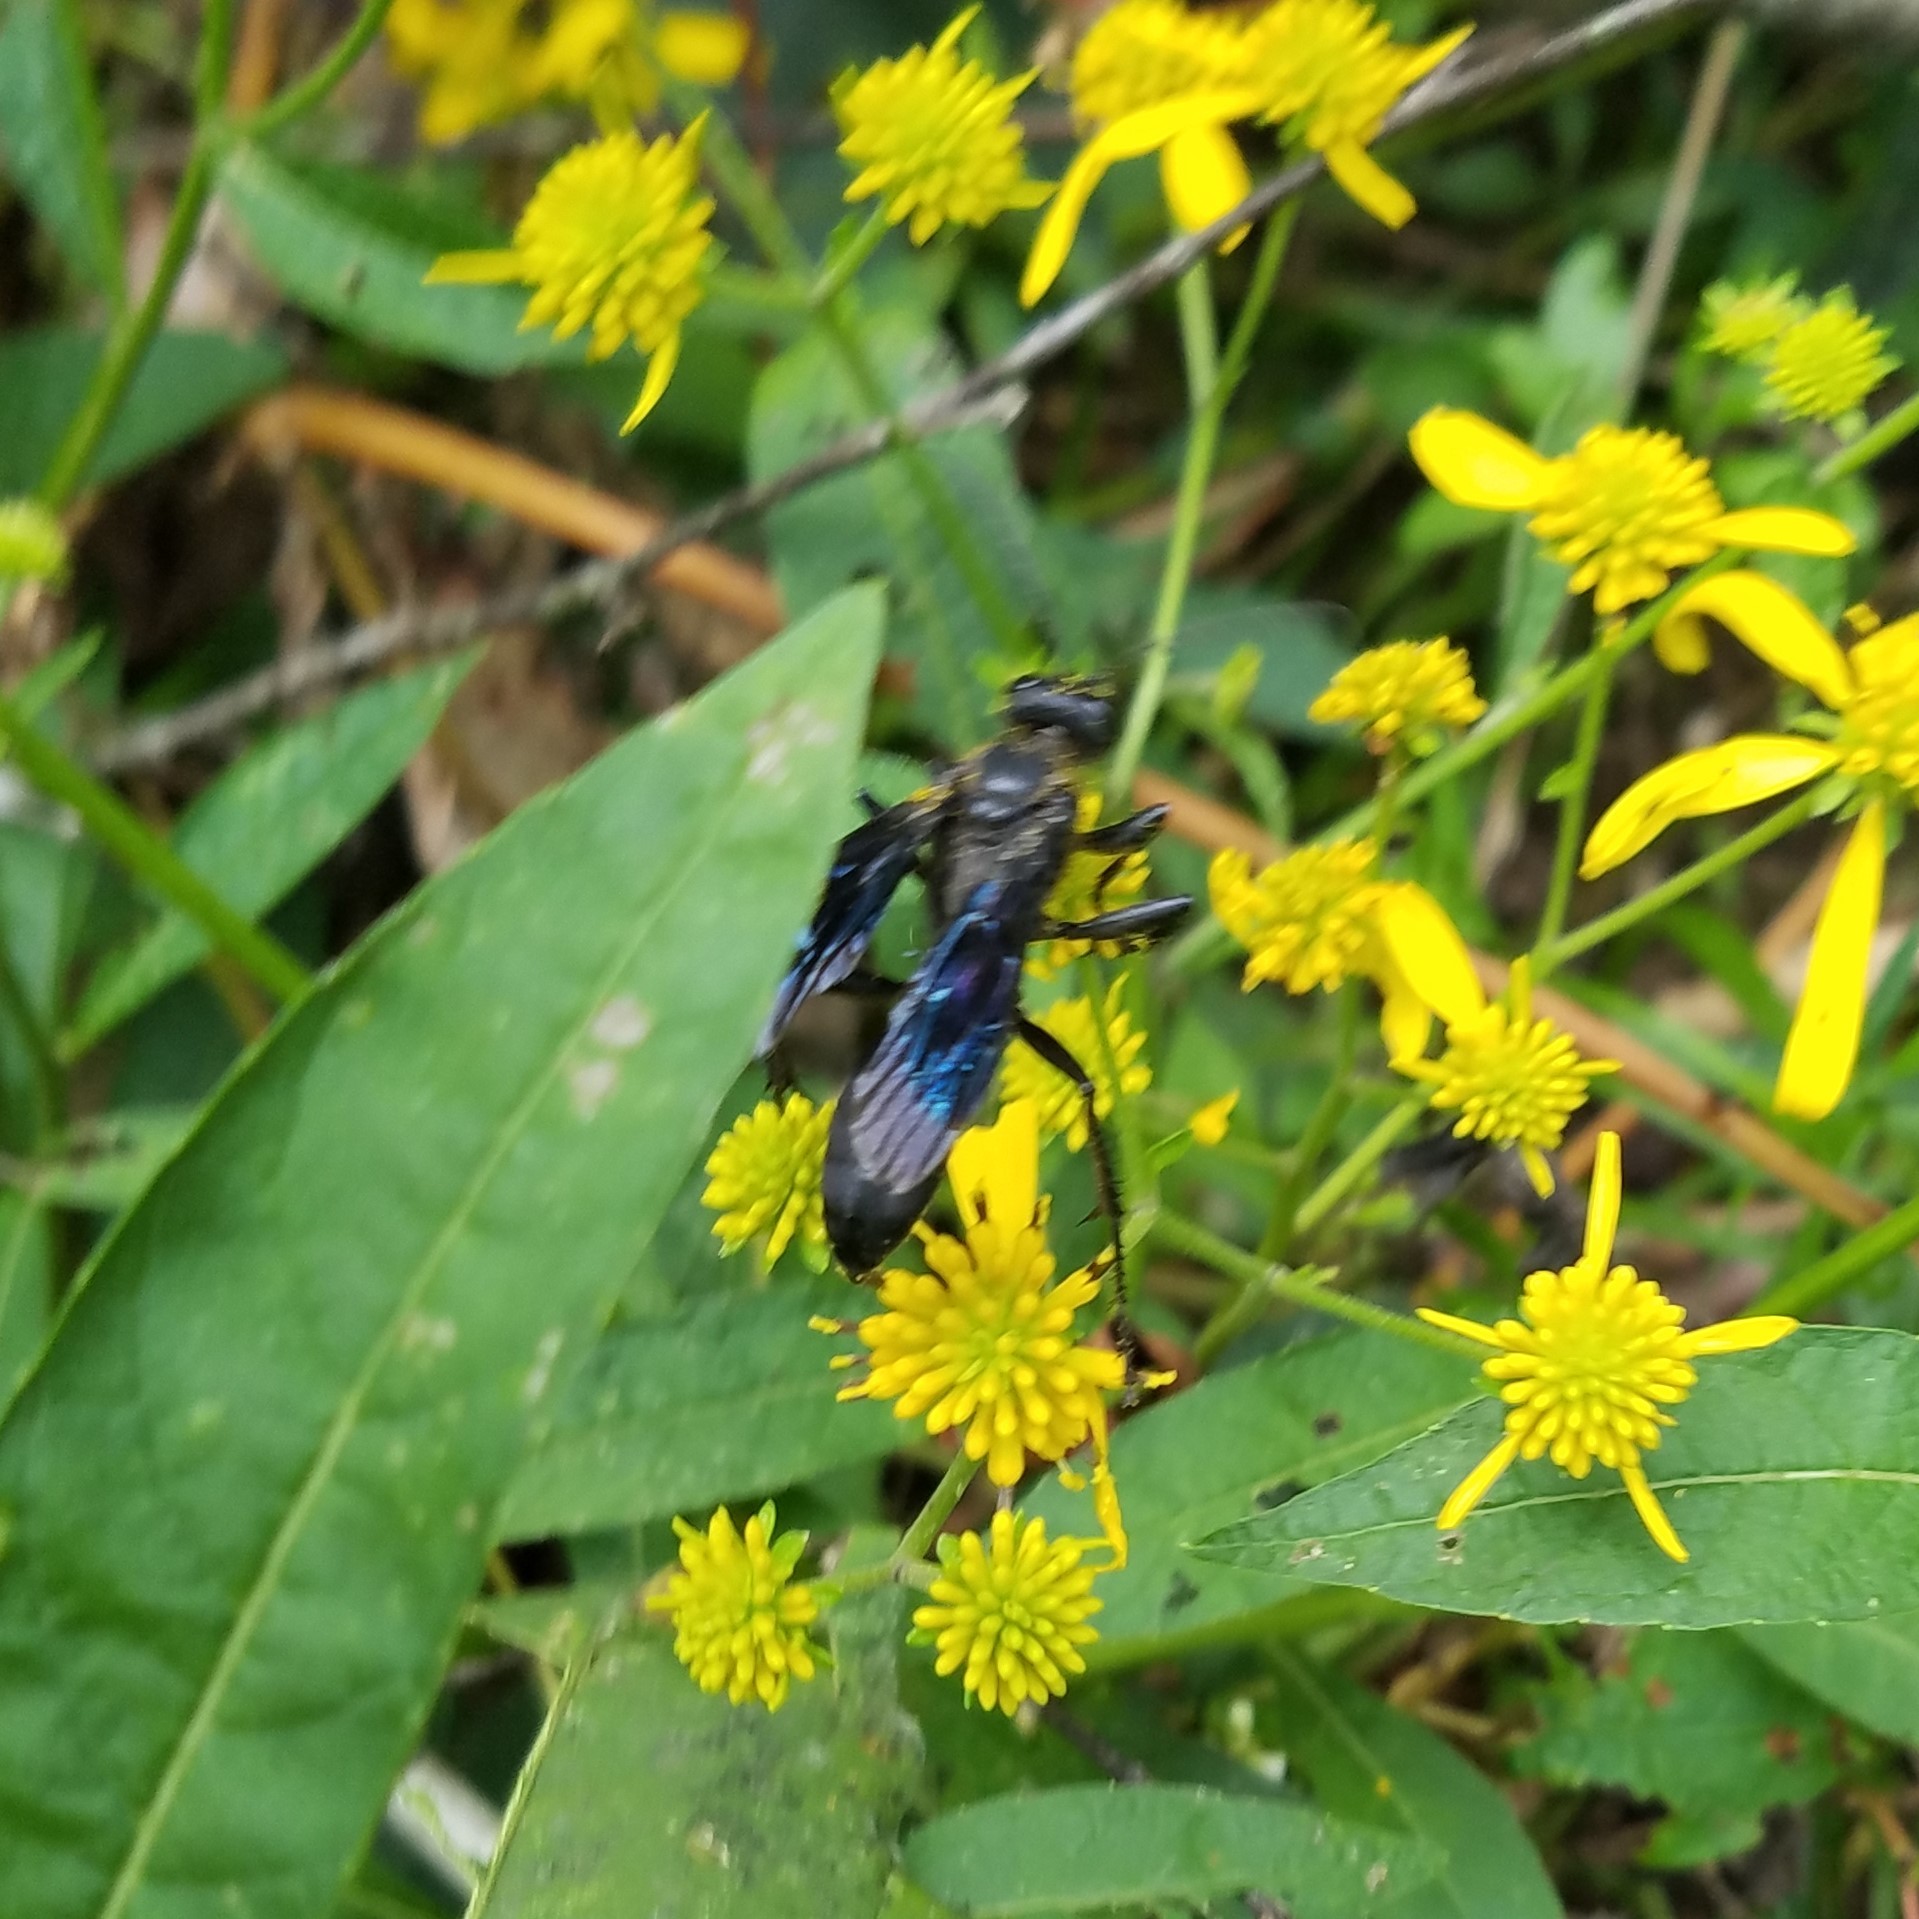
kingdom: Animalia
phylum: Arthropoda
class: Insecta
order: Hymenoptera
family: Sphecidae
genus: Sphex
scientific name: Sphex pensylvanicus
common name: Great black digger wasp
